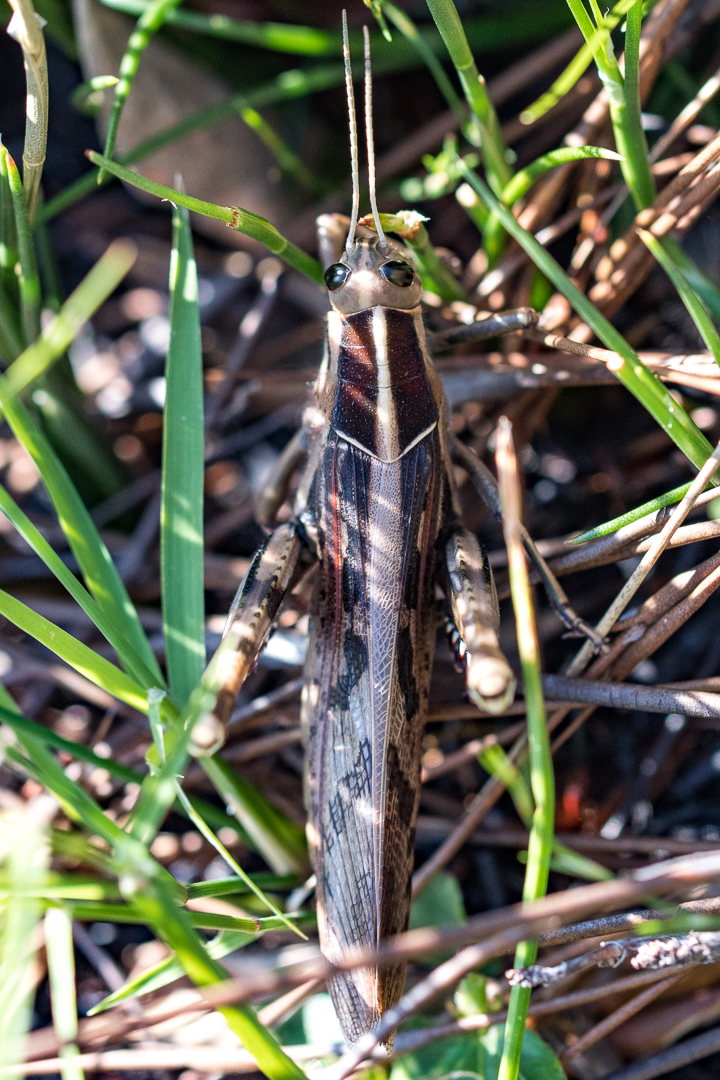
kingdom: Animalia
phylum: Arthropoda
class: Insecta
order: Orthoptera
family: Acrididae
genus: Acanthacris
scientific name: Acanthacris ruficornis
